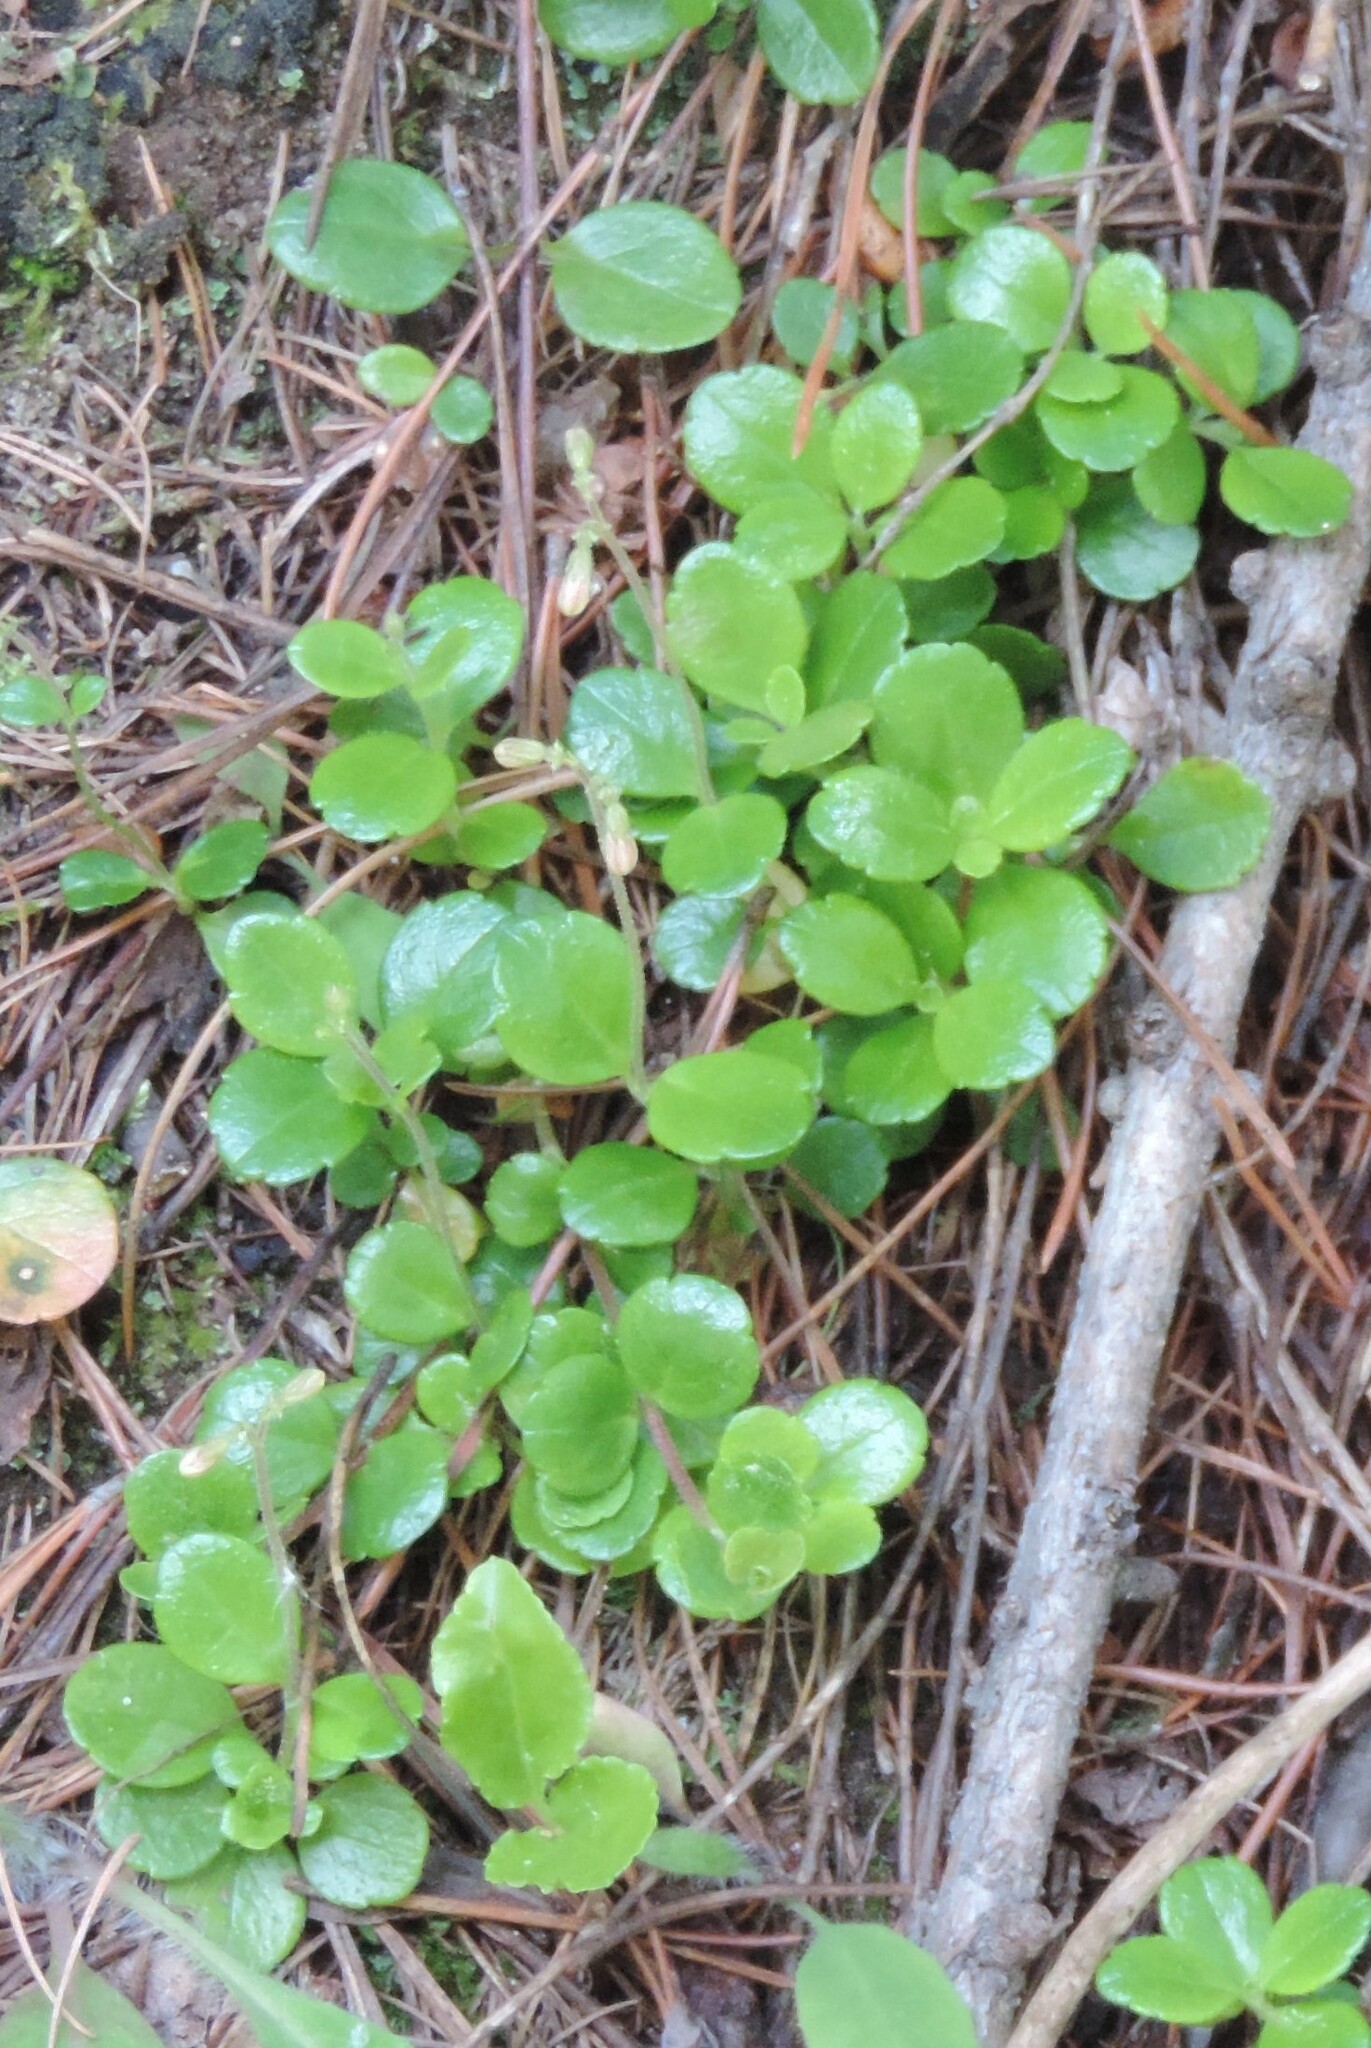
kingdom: Plantae
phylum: Tracheophyta
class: Magnoliopsida
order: Dipsacales
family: Caprifoliaceae
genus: Linnaea
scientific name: Linnaea borealis
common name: Twinflower
